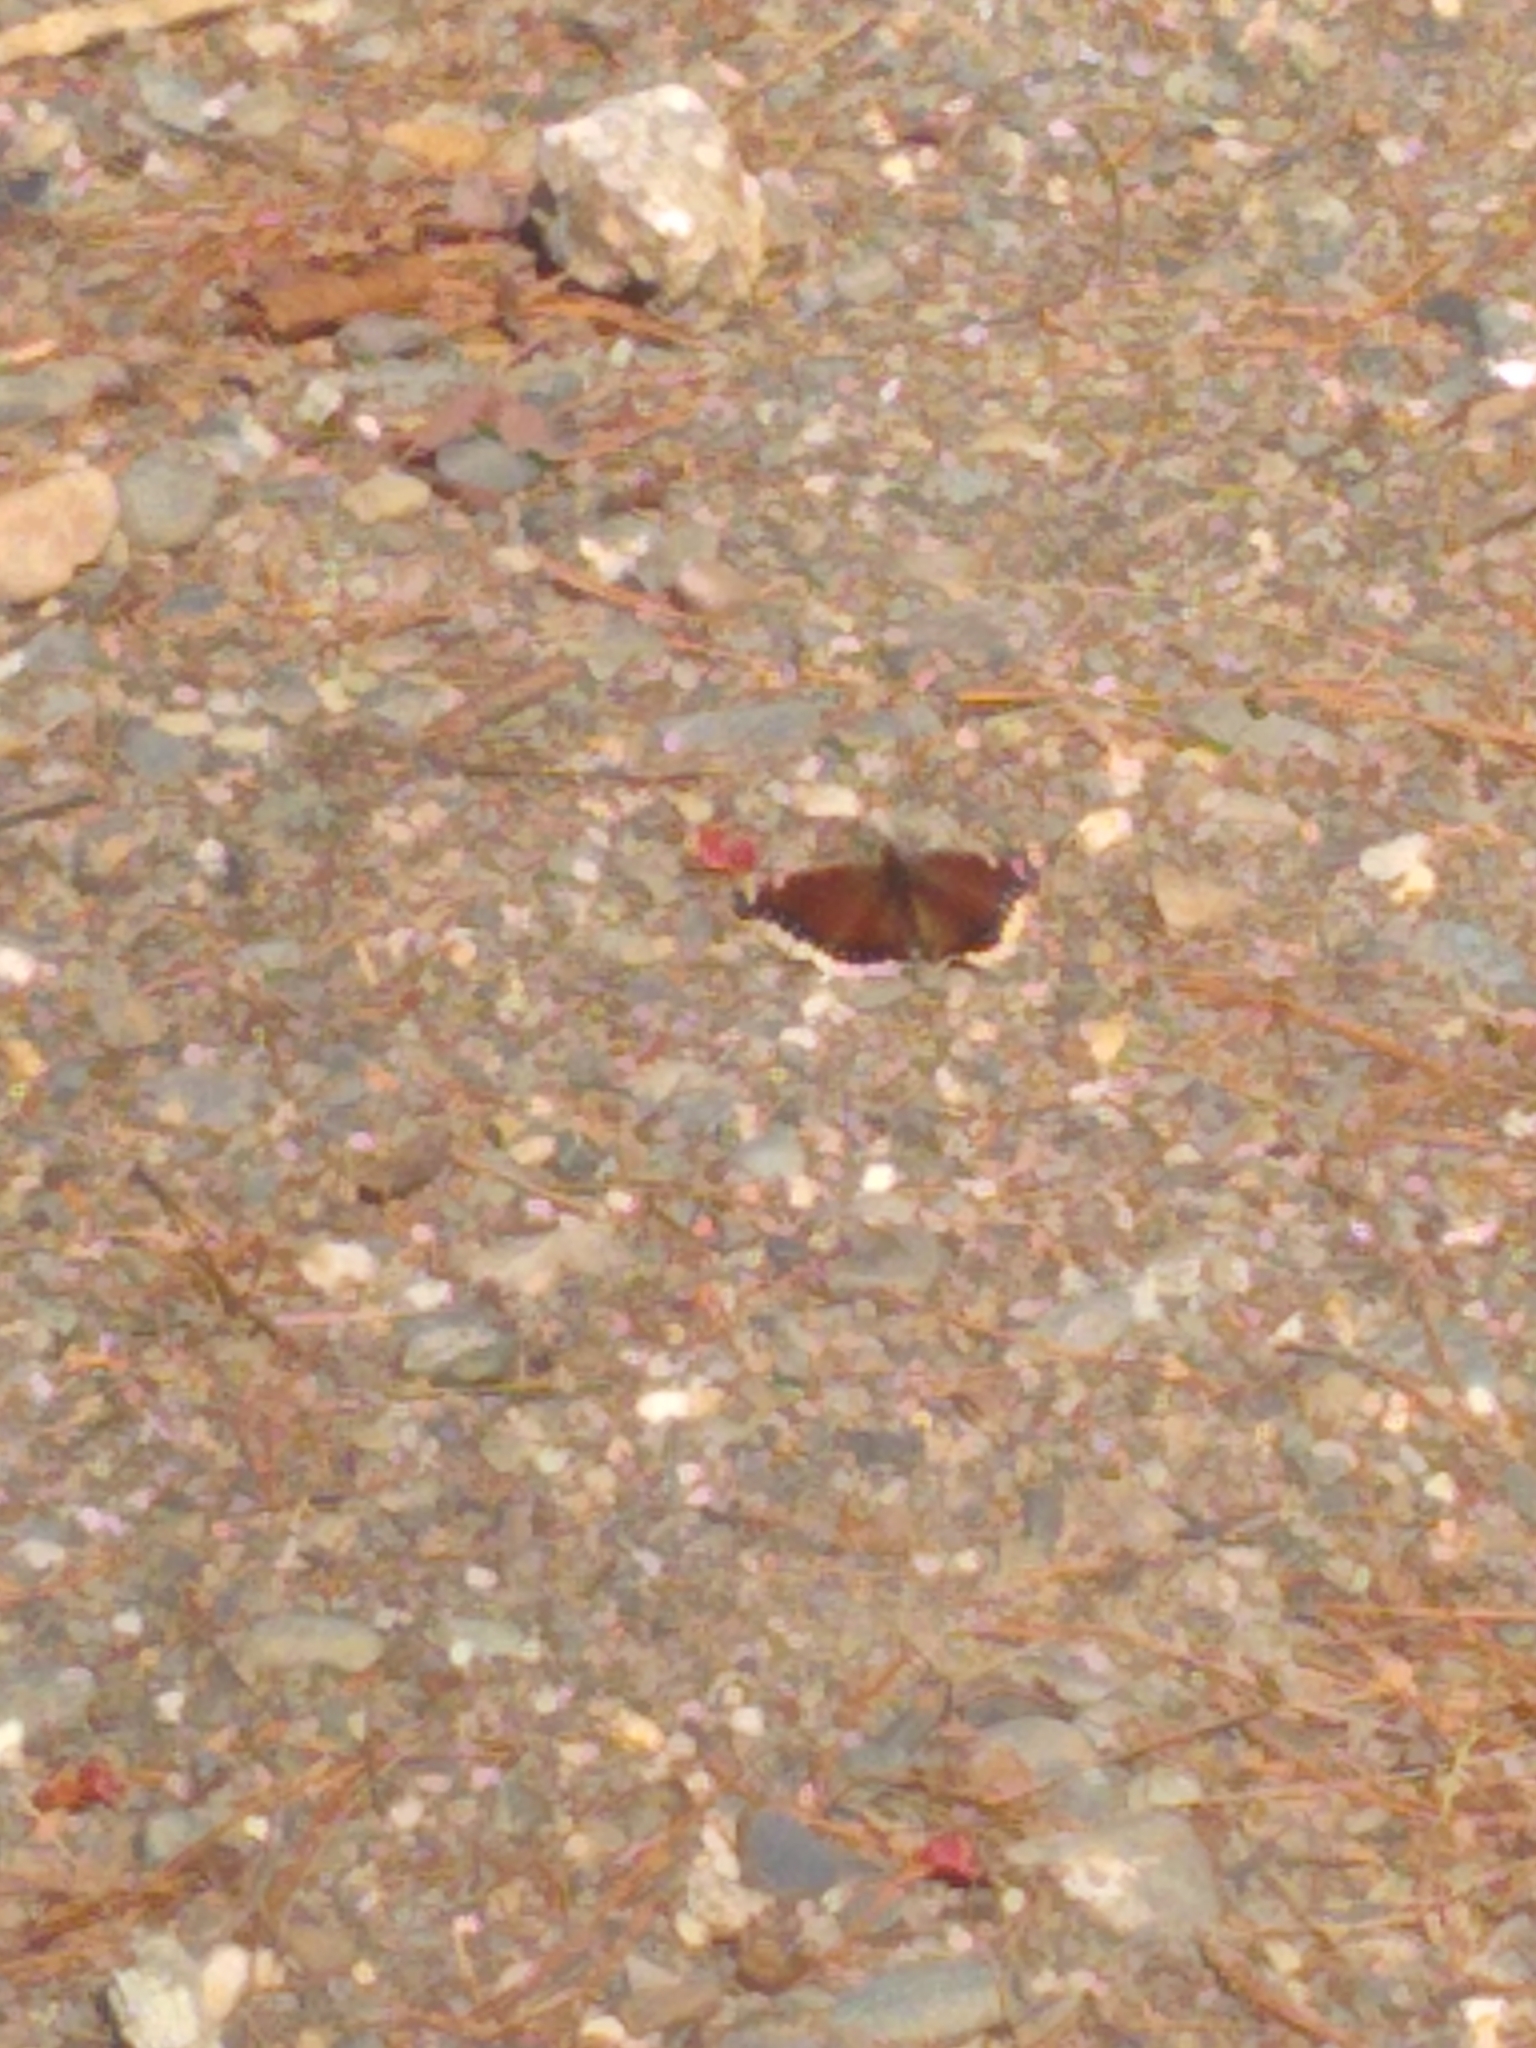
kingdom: Animalia
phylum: Arthropoda
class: Insecta
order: Lepidoptera
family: Nymphalidae
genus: Nymphalis
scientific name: Nymphalis antiopa
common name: Camberwell beauty
